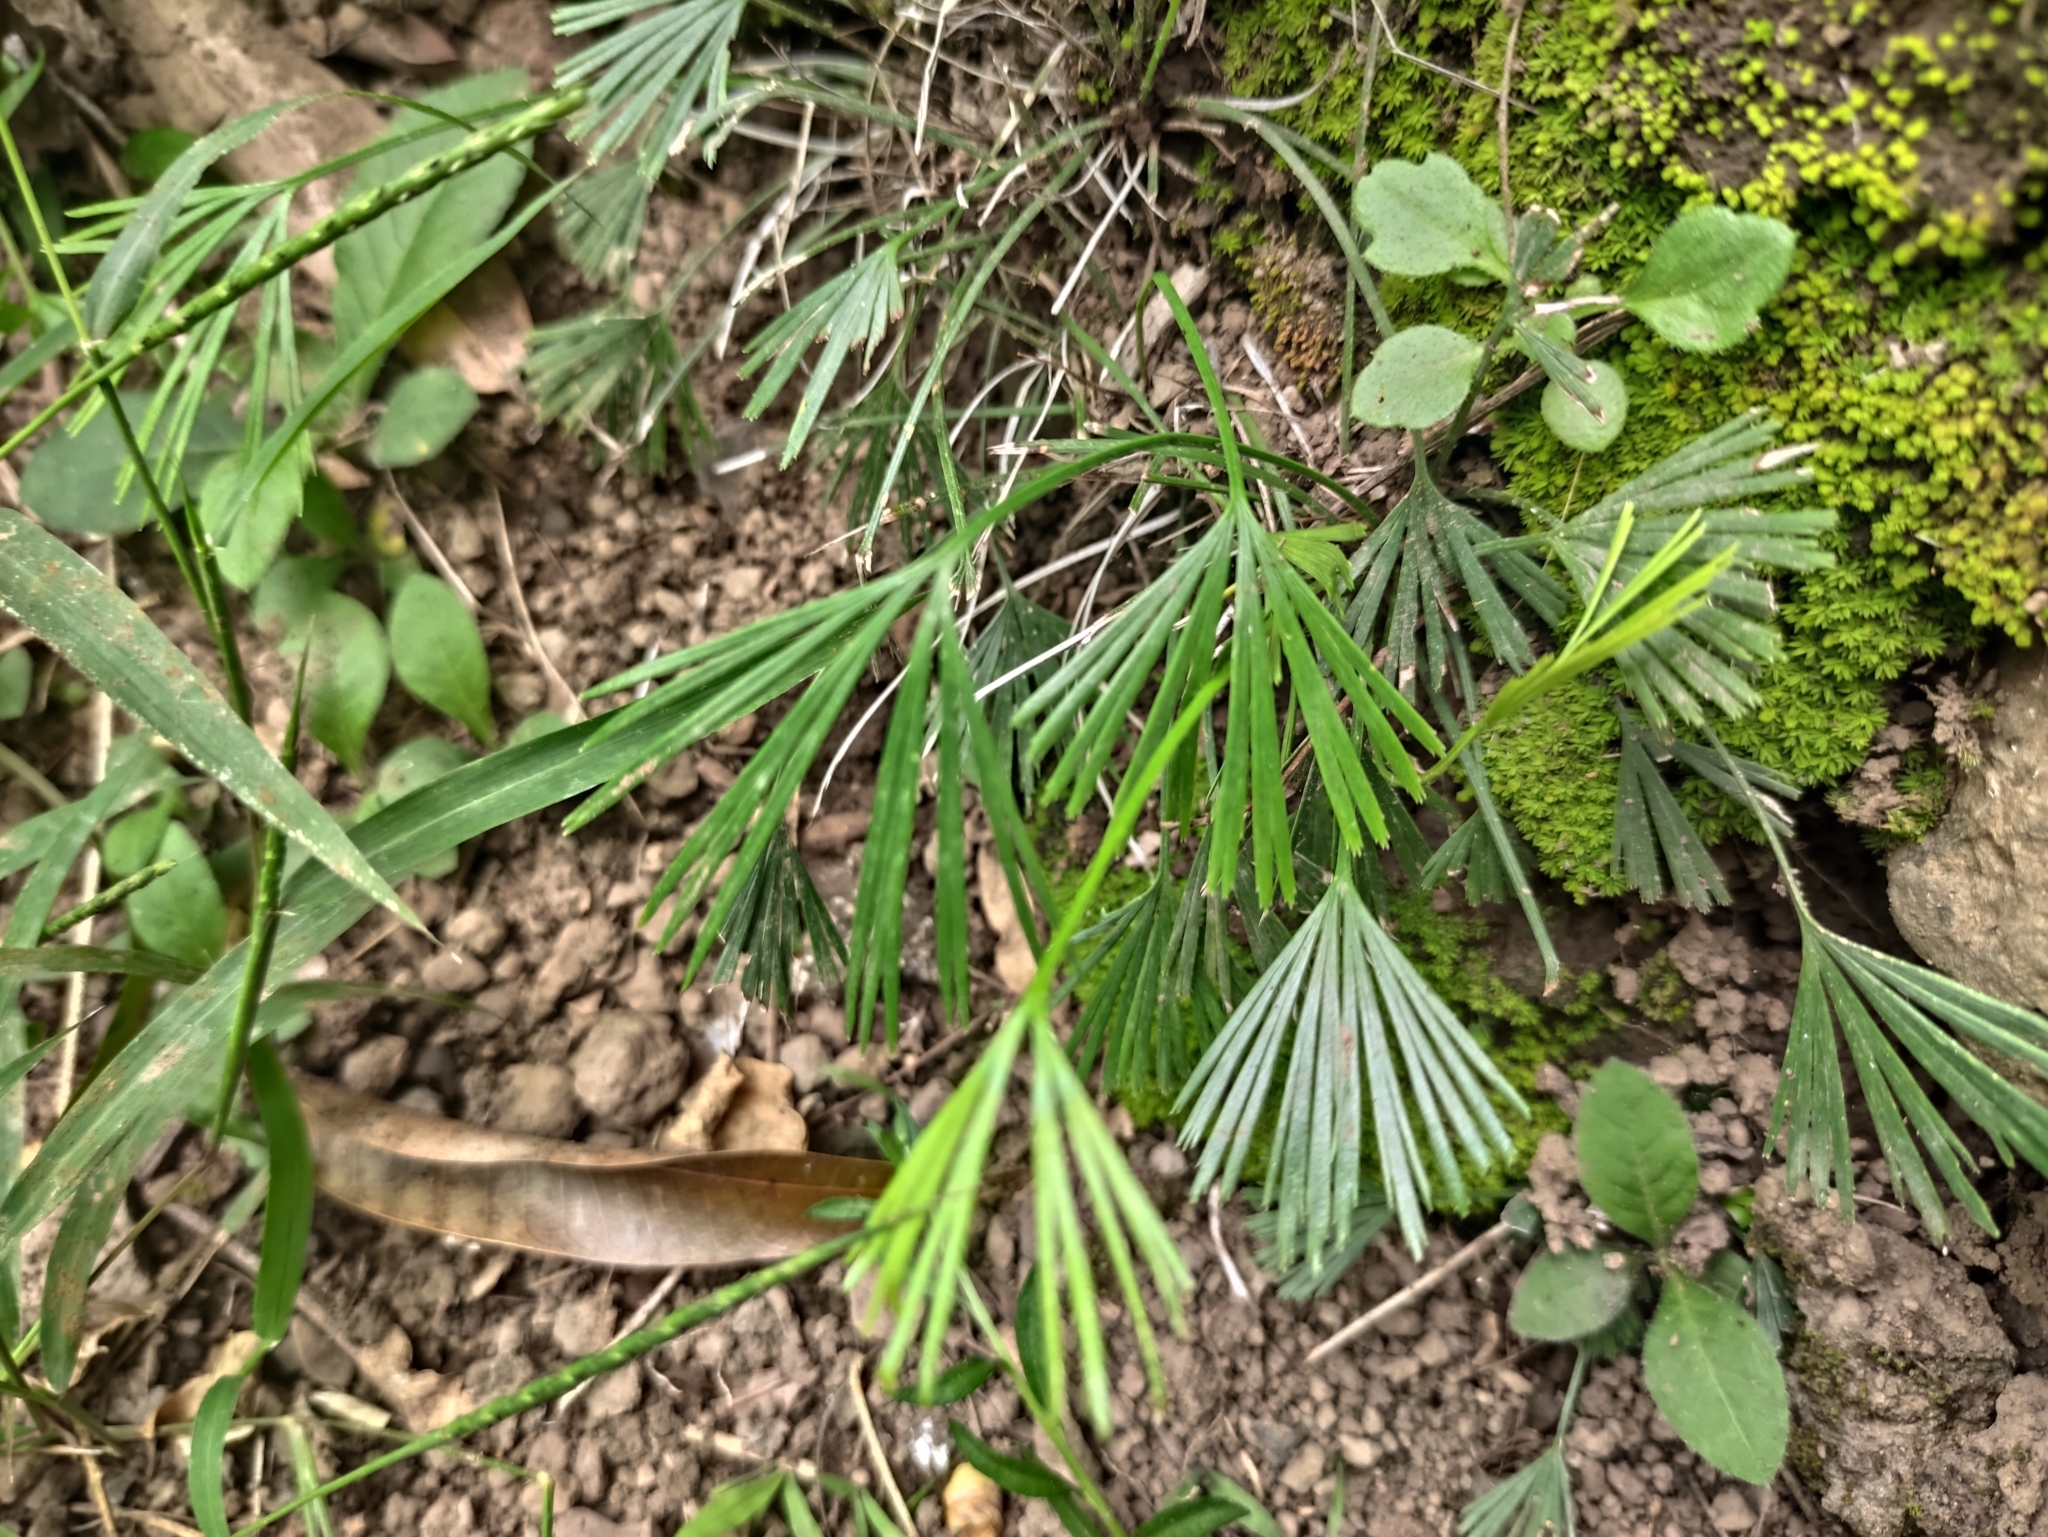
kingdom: Plantae
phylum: Tracheophyta
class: Polypodiopsida
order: Polypodiales
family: Pteridaceae
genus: Actiniopteris
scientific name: Actiniopteris semiflabellata
